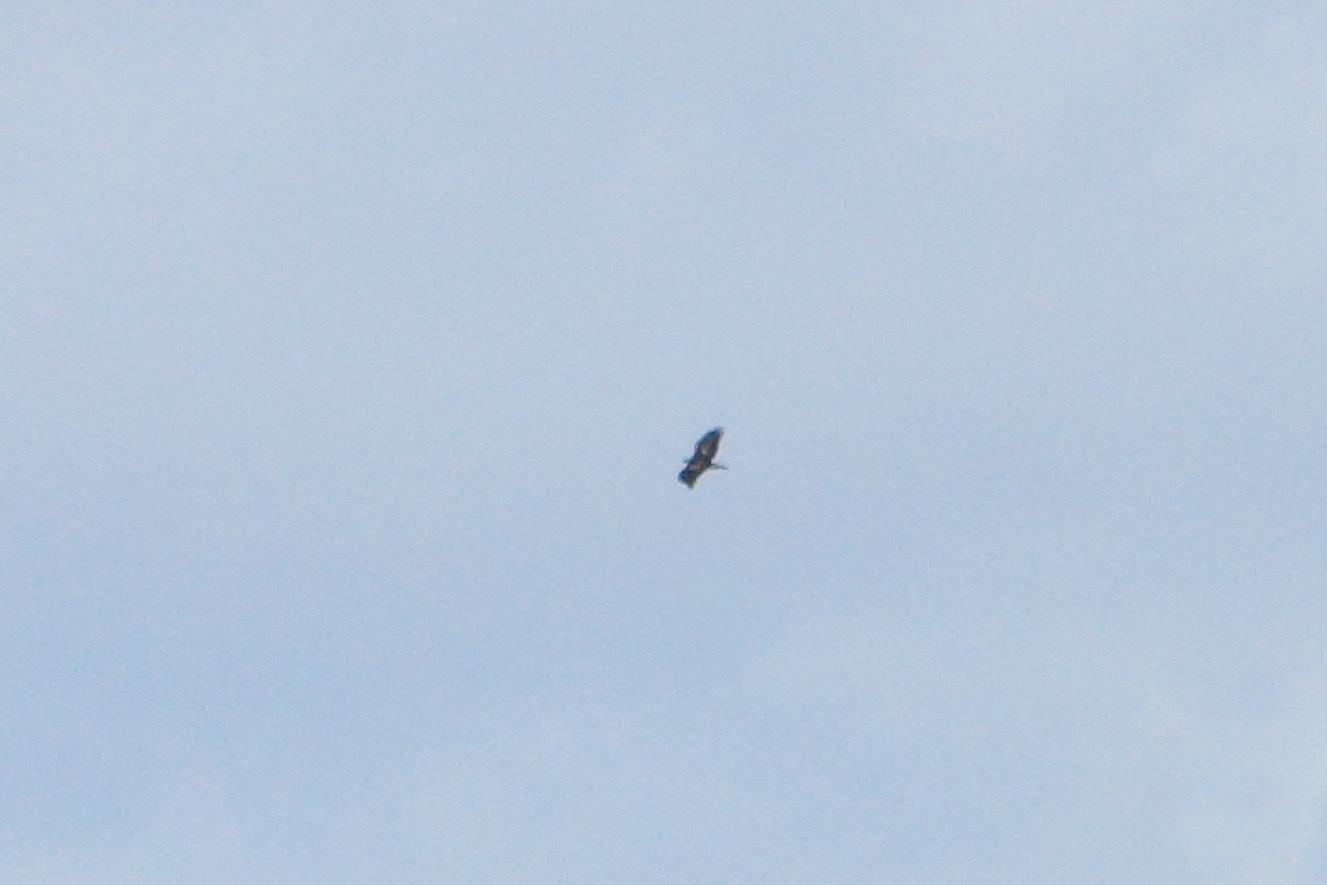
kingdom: Animalia
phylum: Chordata
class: Aves
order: Accipitriformes
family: Accipitridae
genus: Aquila
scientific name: Aquila chrysaetos
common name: Golden eagle
